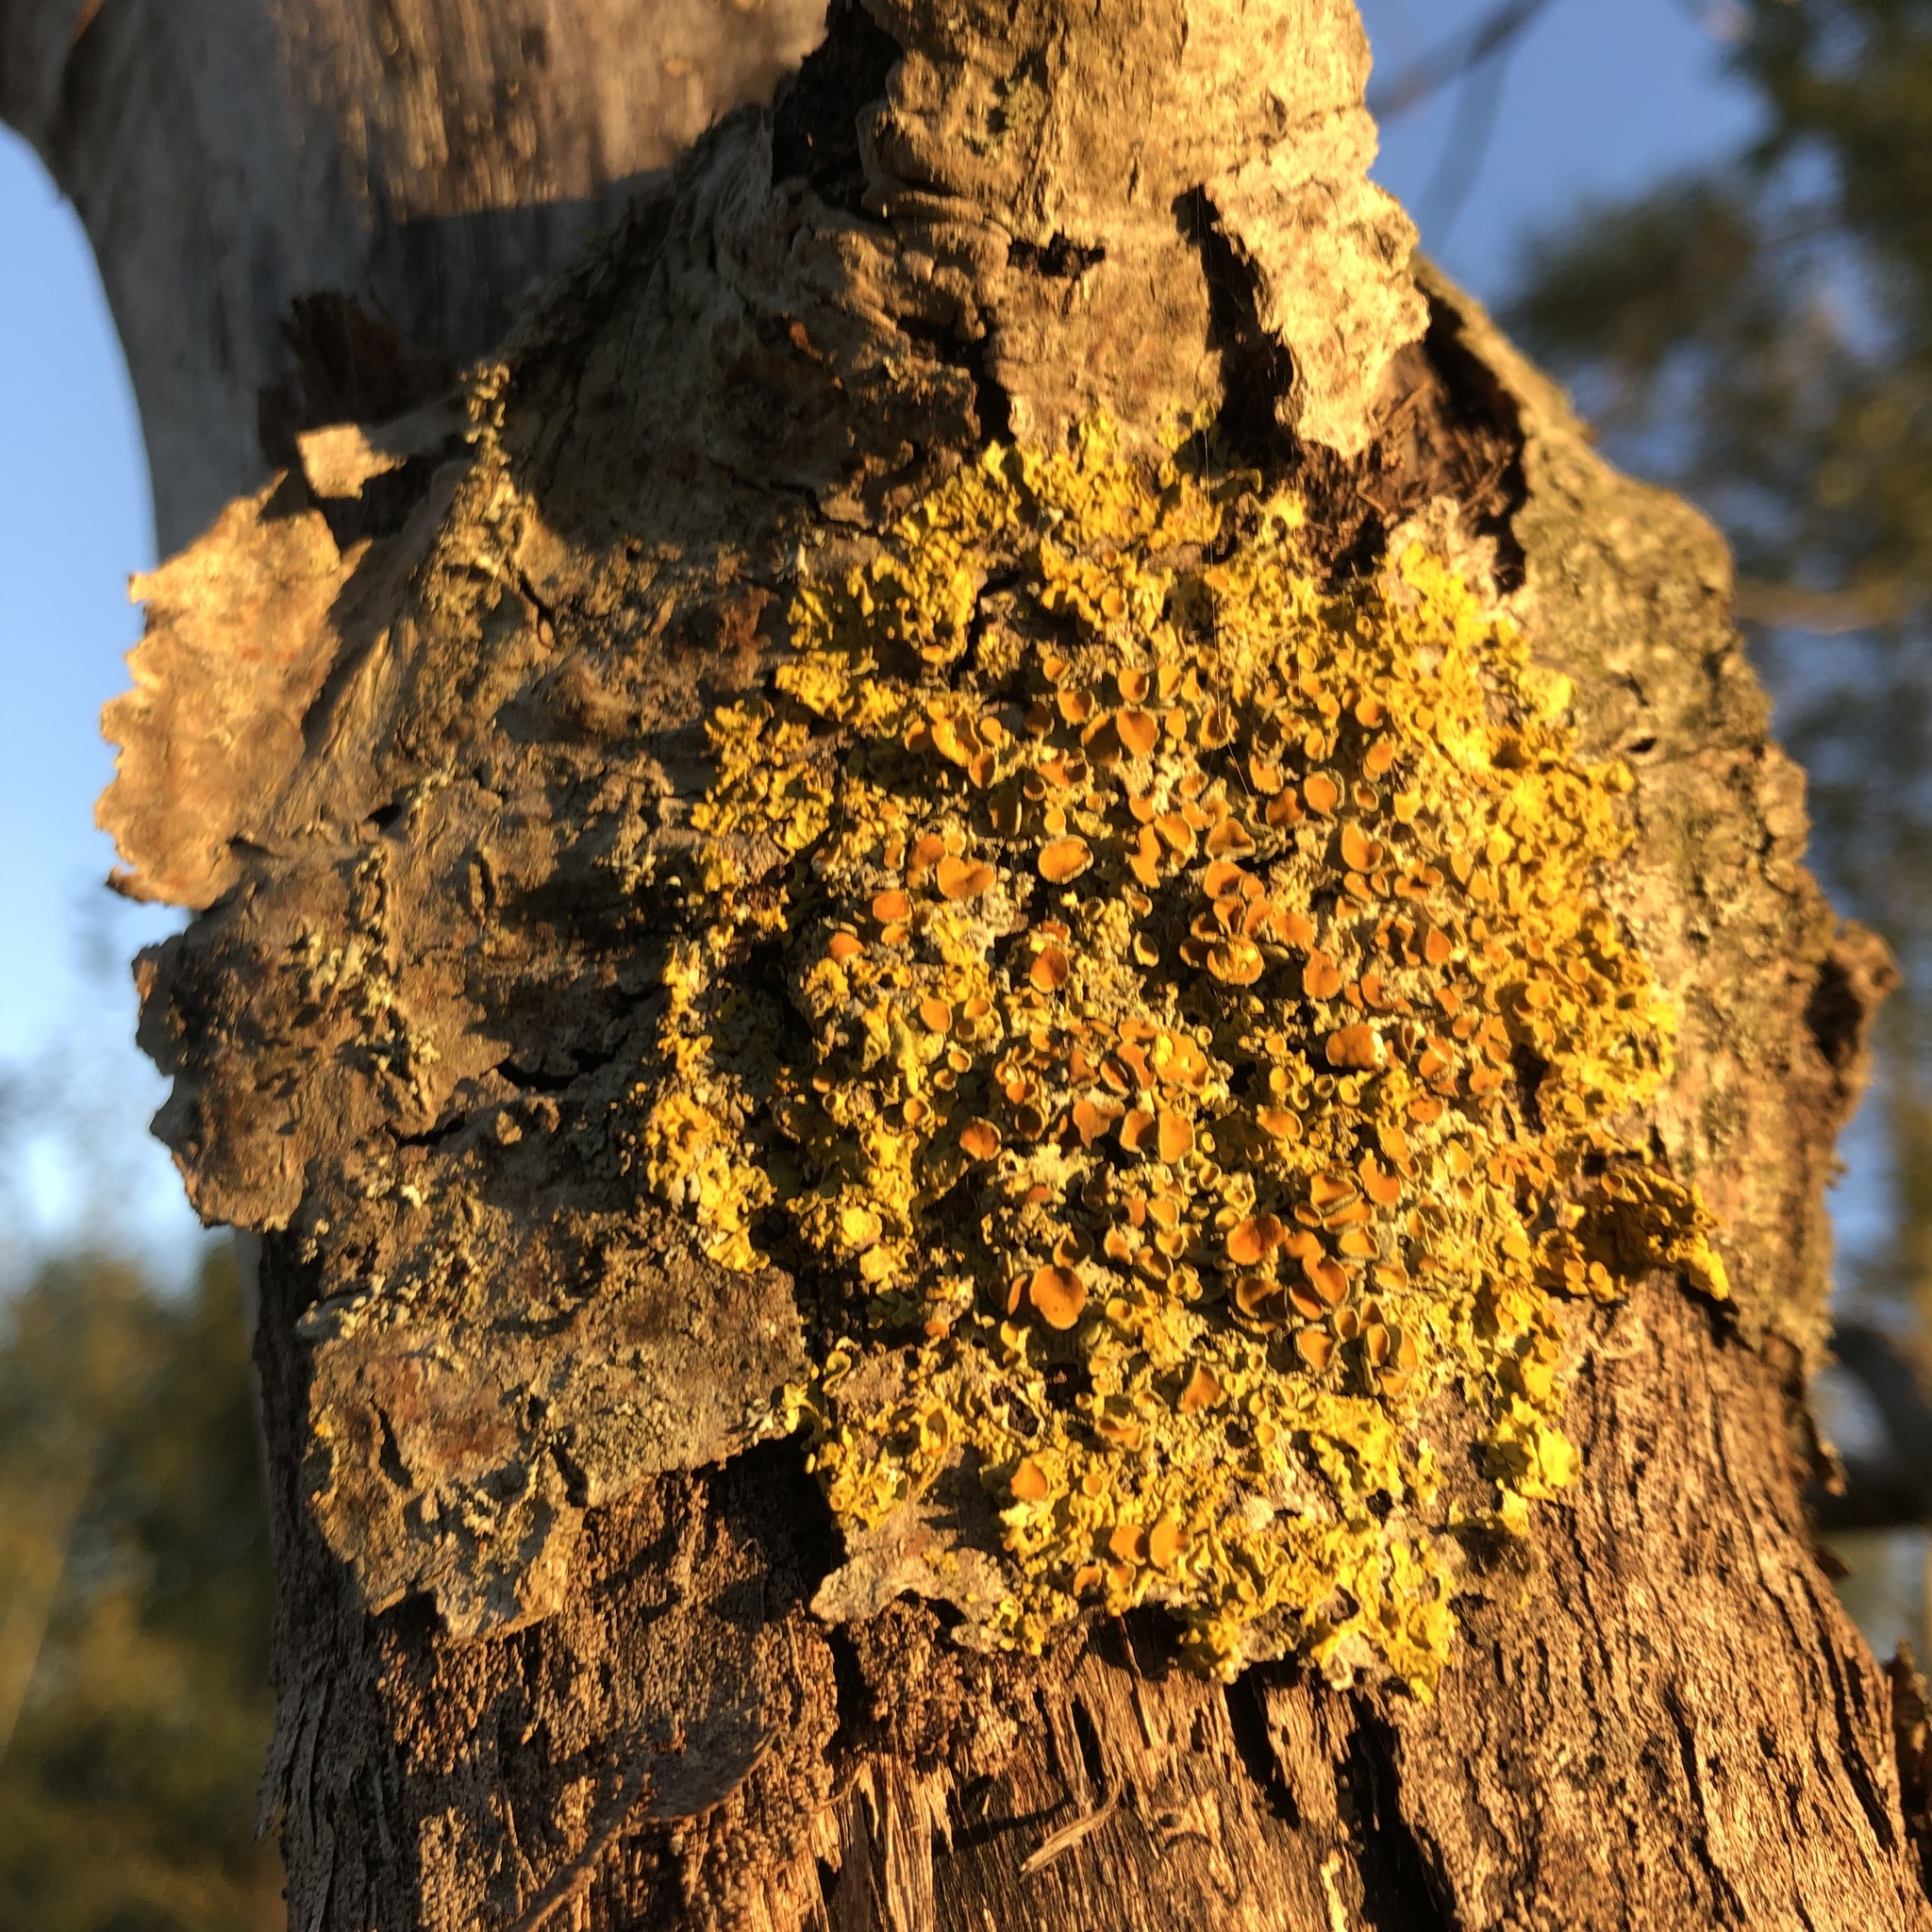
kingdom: Fungi
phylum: Ascomycota
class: Lecanoromycetes
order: Teloschistales
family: Teloschistaceae
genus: Xanthoria
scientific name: Xanthoria parietina
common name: Common orange lichen
